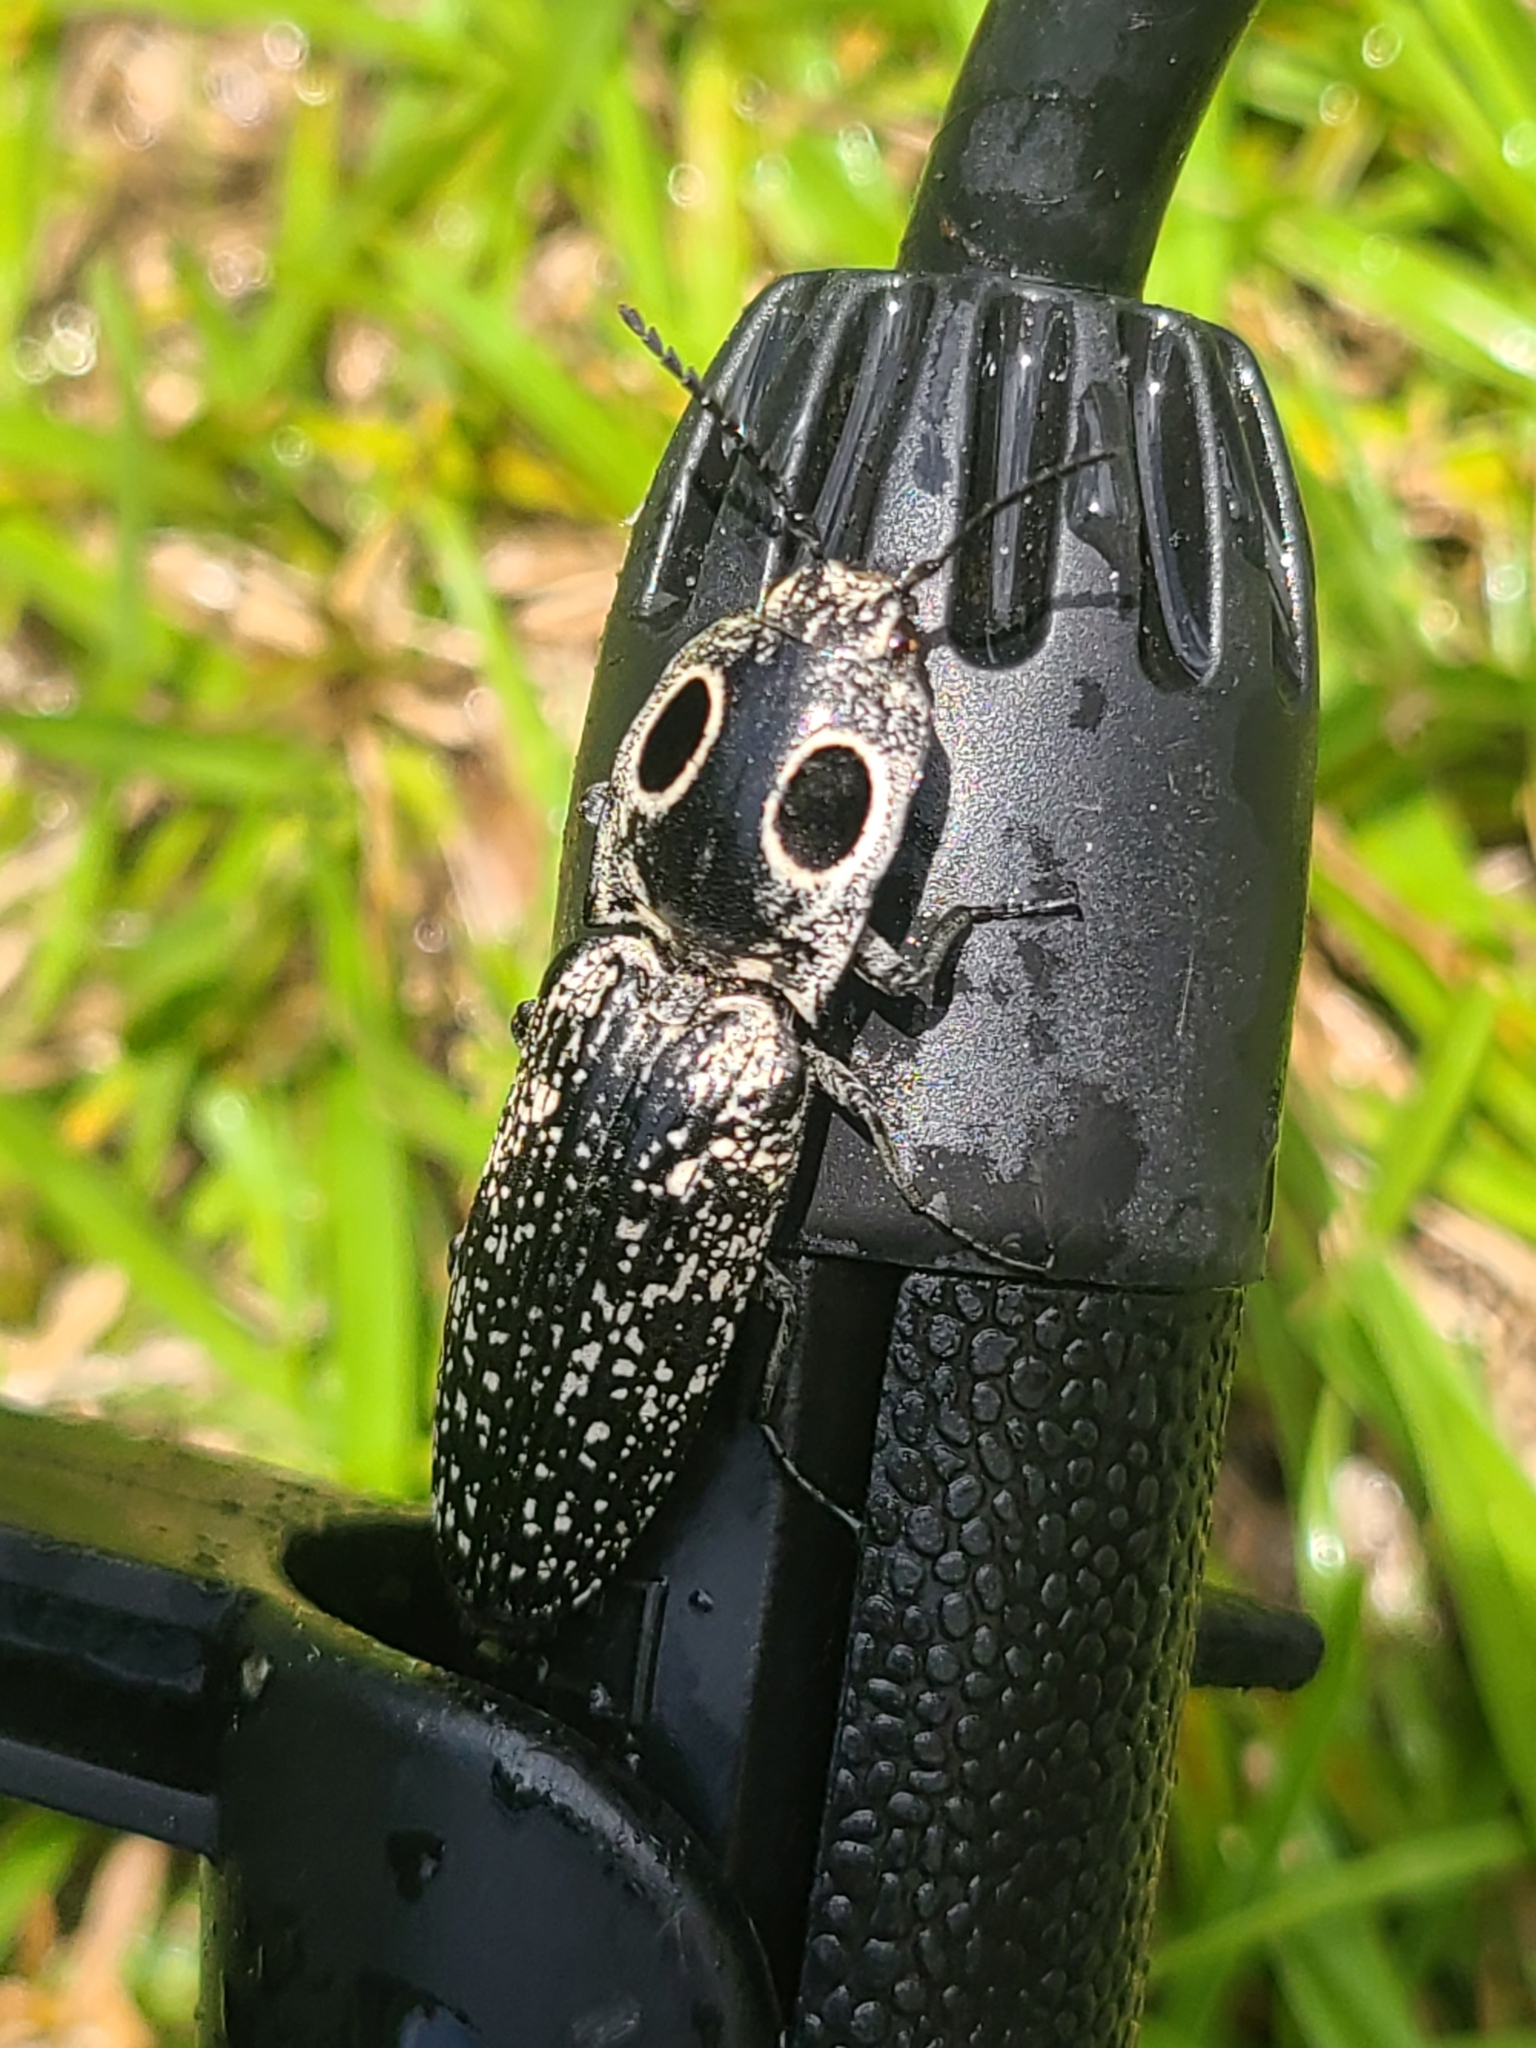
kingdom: Animalia
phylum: Arthropoda
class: Insecta
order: Coleoptera
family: Elateridae
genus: Alaus
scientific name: Alaus oculatus
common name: Eastern eyed click beetle
